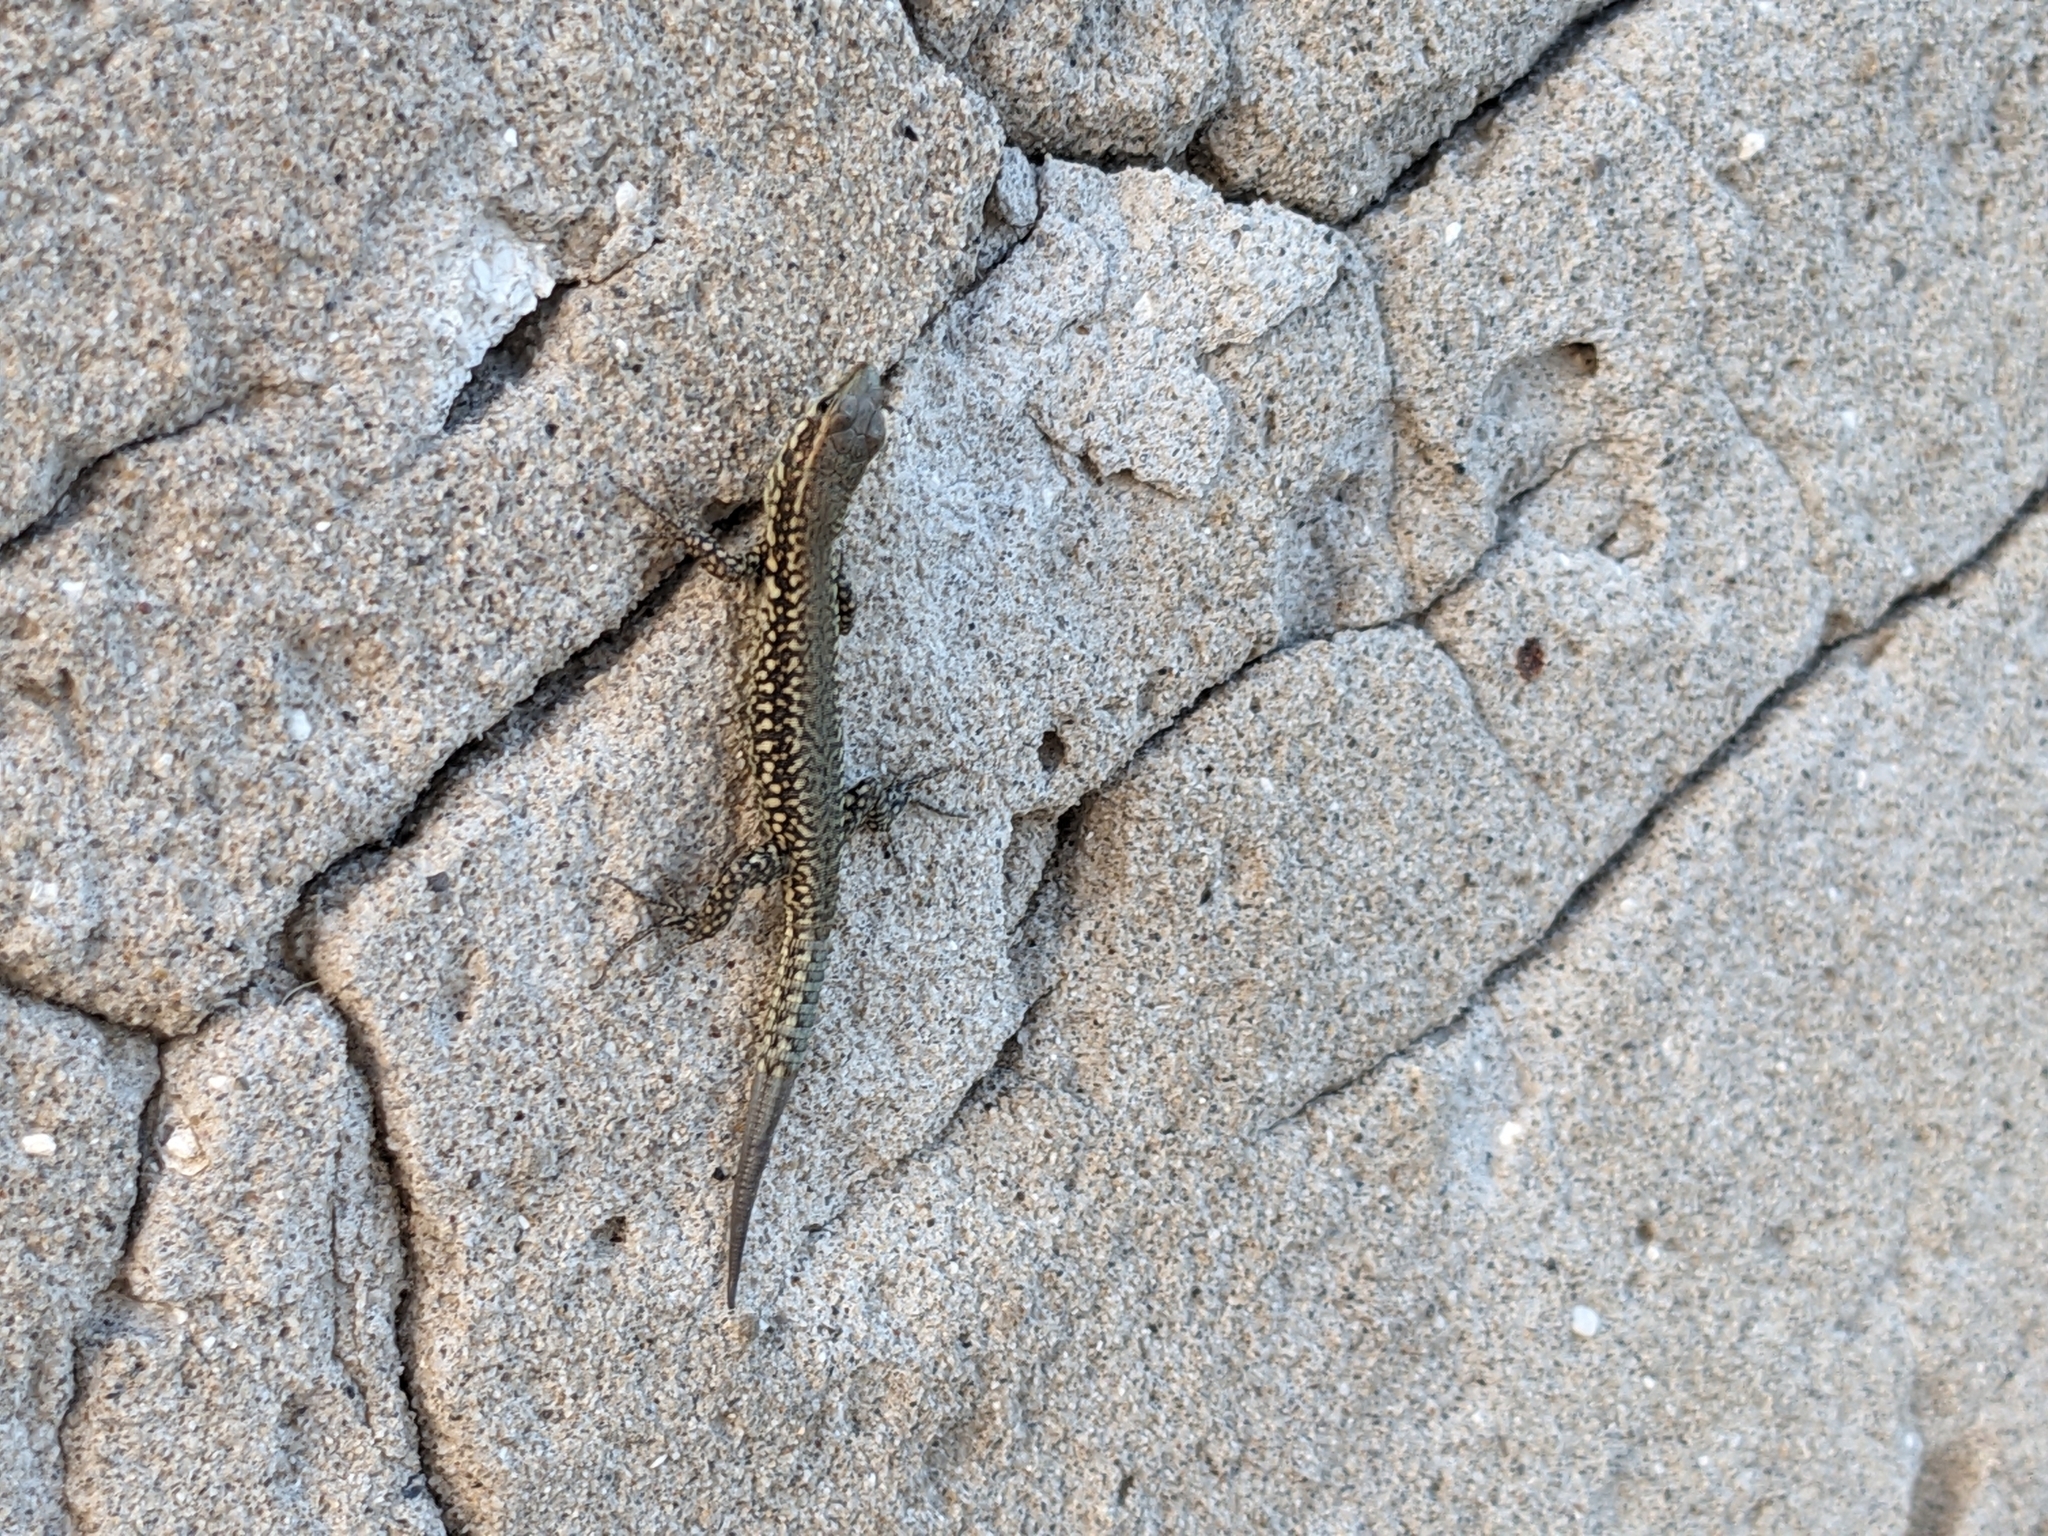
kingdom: Animalia
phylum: Chordata
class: Squamata
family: Lacertidae
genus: Podarcis
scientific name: Podarcis muralis
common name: Common wall lizard
